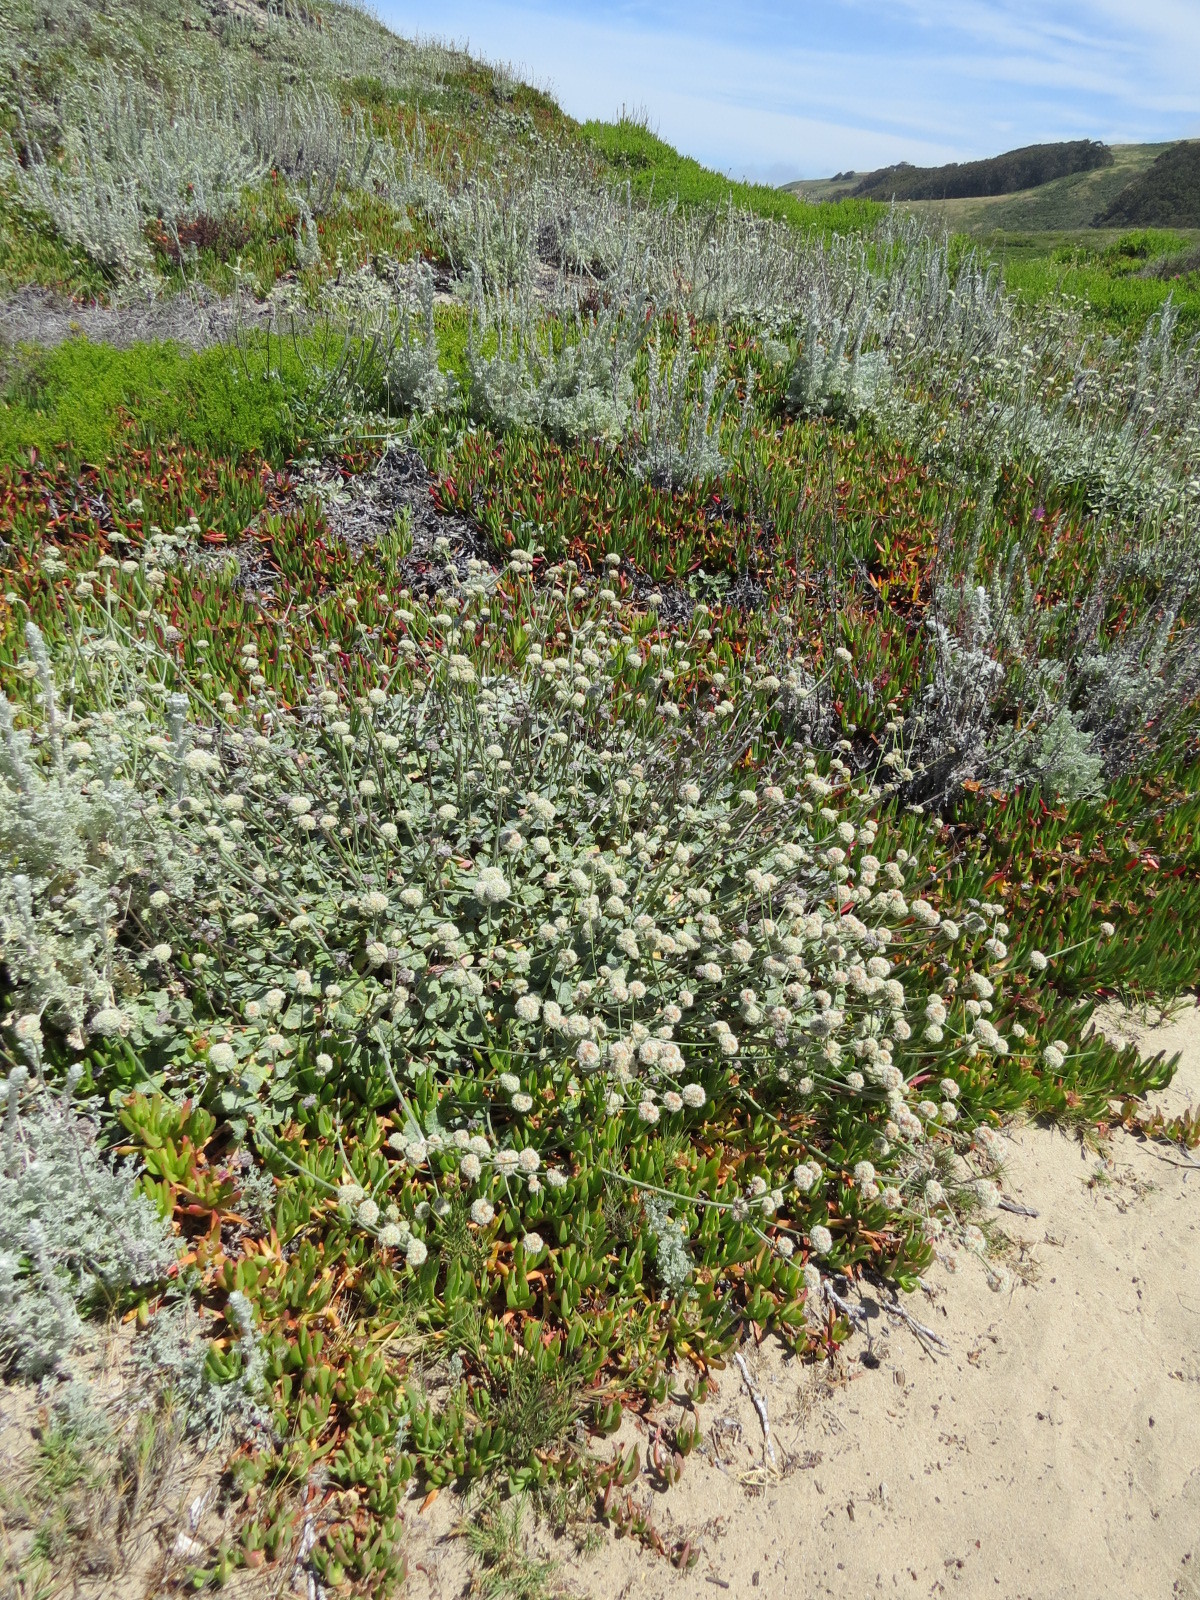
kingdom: Plantae
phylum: Tracheophyta
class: Magnoliopsida
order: Caryophyllales
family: Polygonaceae
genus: Eriogonum
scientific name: Eriogonum latifolium
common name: Seaside wild buckwheat
